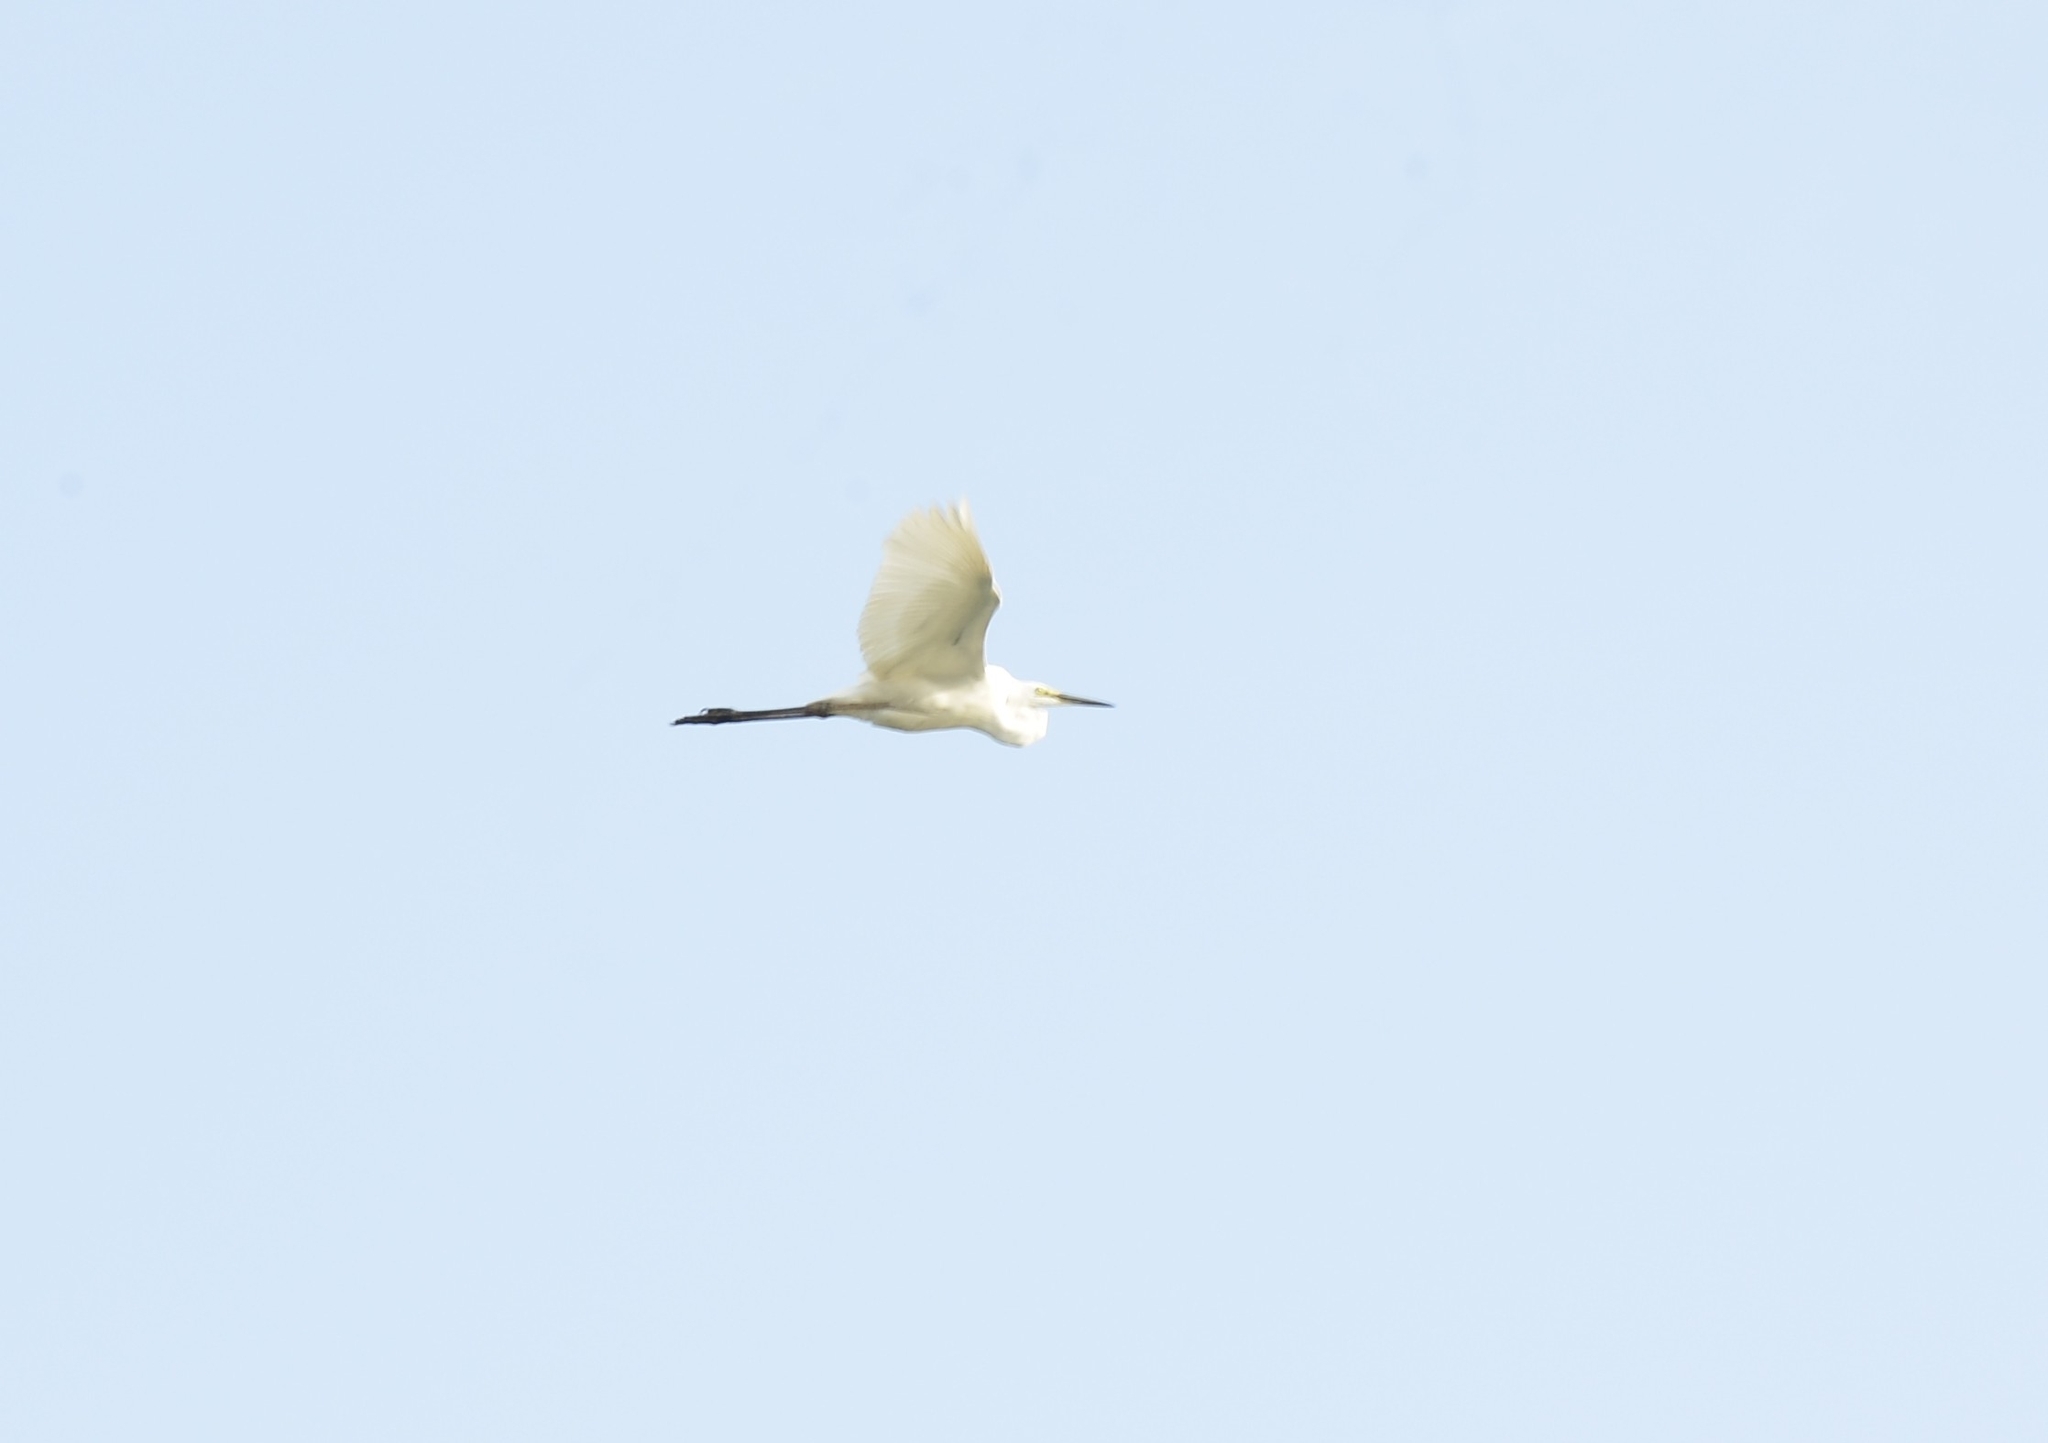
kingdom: Animalia
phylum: Chordata
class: Aves
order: Pelecaniformes
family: Ardeidae
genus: Ardea
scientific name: Ardea alba
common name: Great egret
